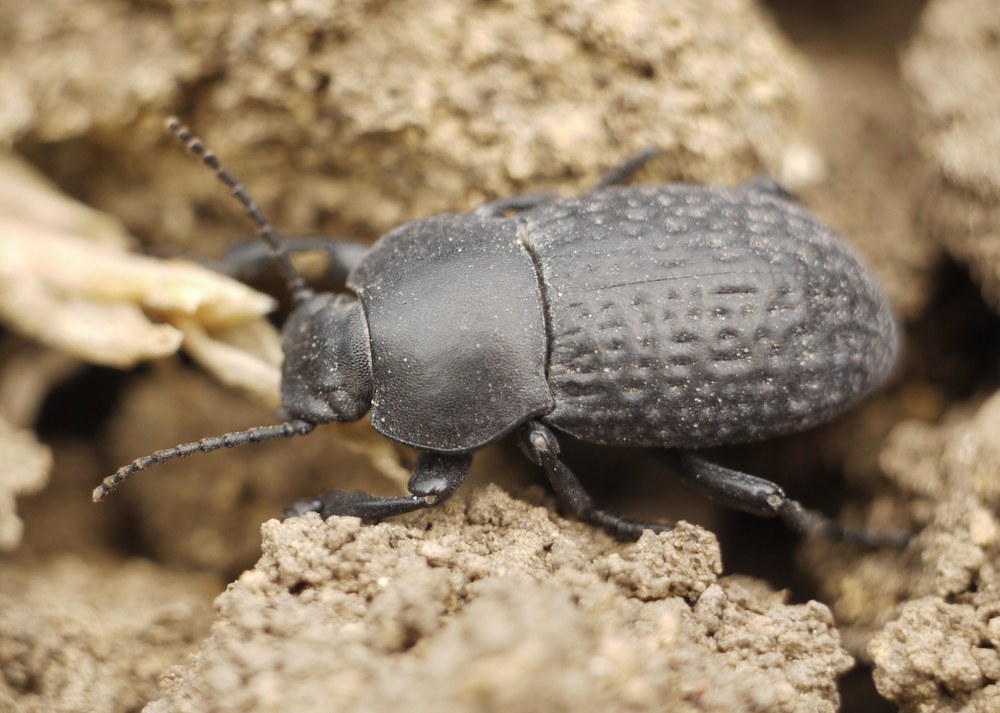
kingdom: Animalia
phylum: Arthropoda
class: Insecta
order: Coleoptera
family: Tenebrionidae
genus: Dendarus
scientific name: Dendarus punctatus
